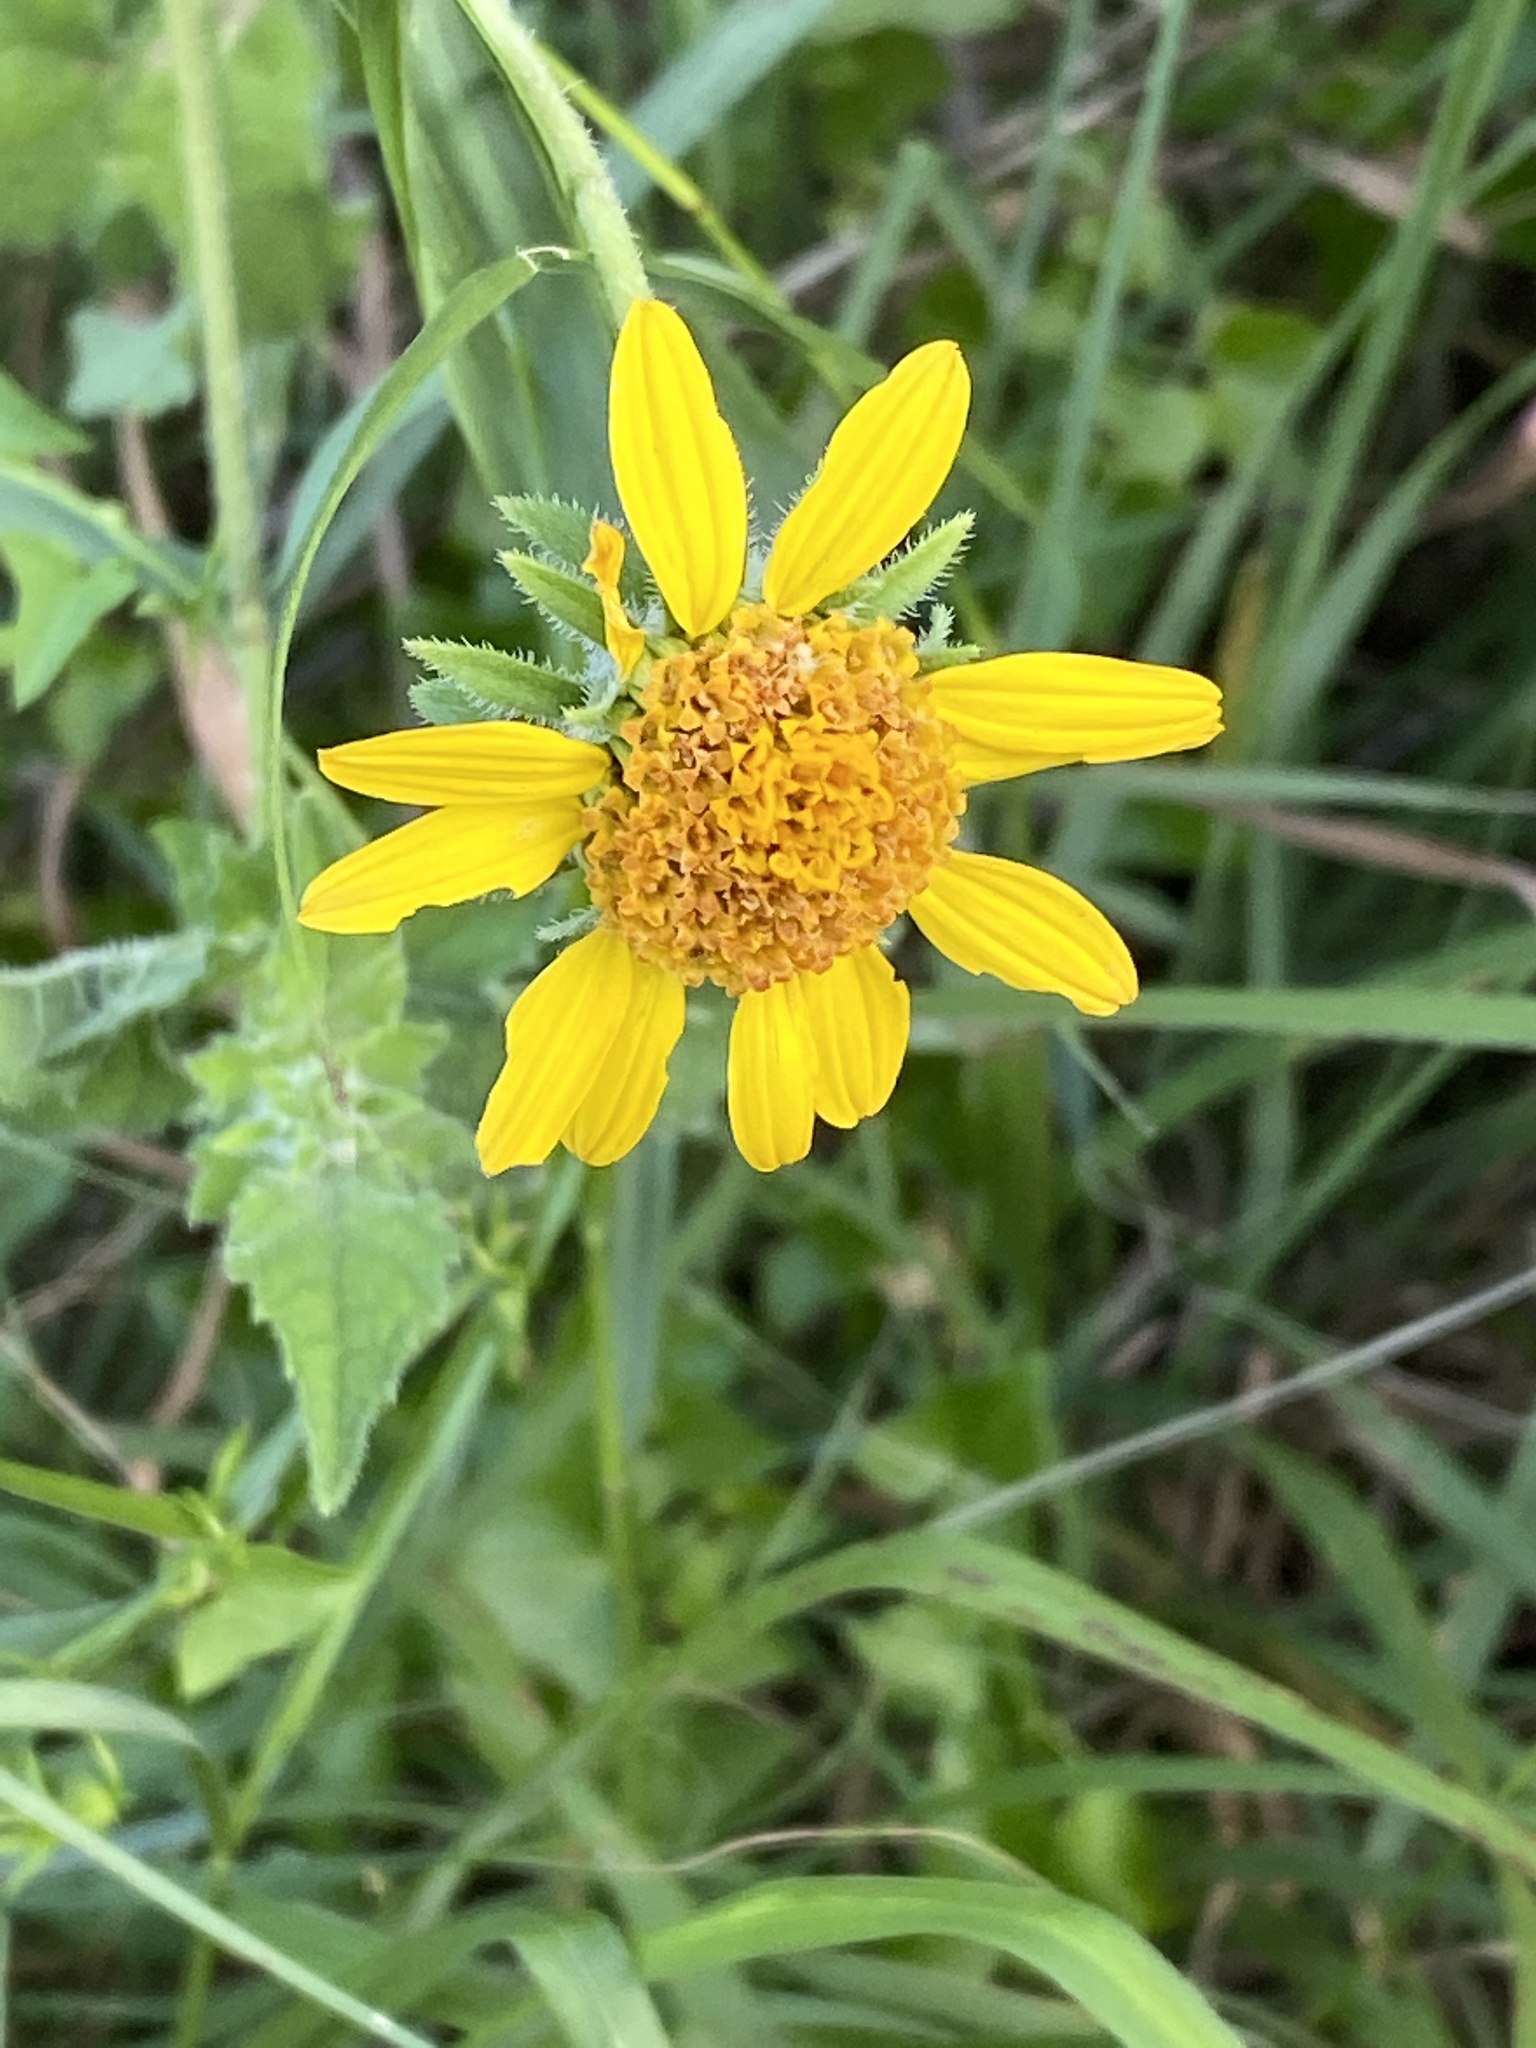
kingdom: Plantae
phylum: Tracheophyta
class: Magnoliopsida
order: Asterales
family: Asteraceae
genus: Simsia
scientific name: Simsia calva
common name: Awnless bush-sunflower
